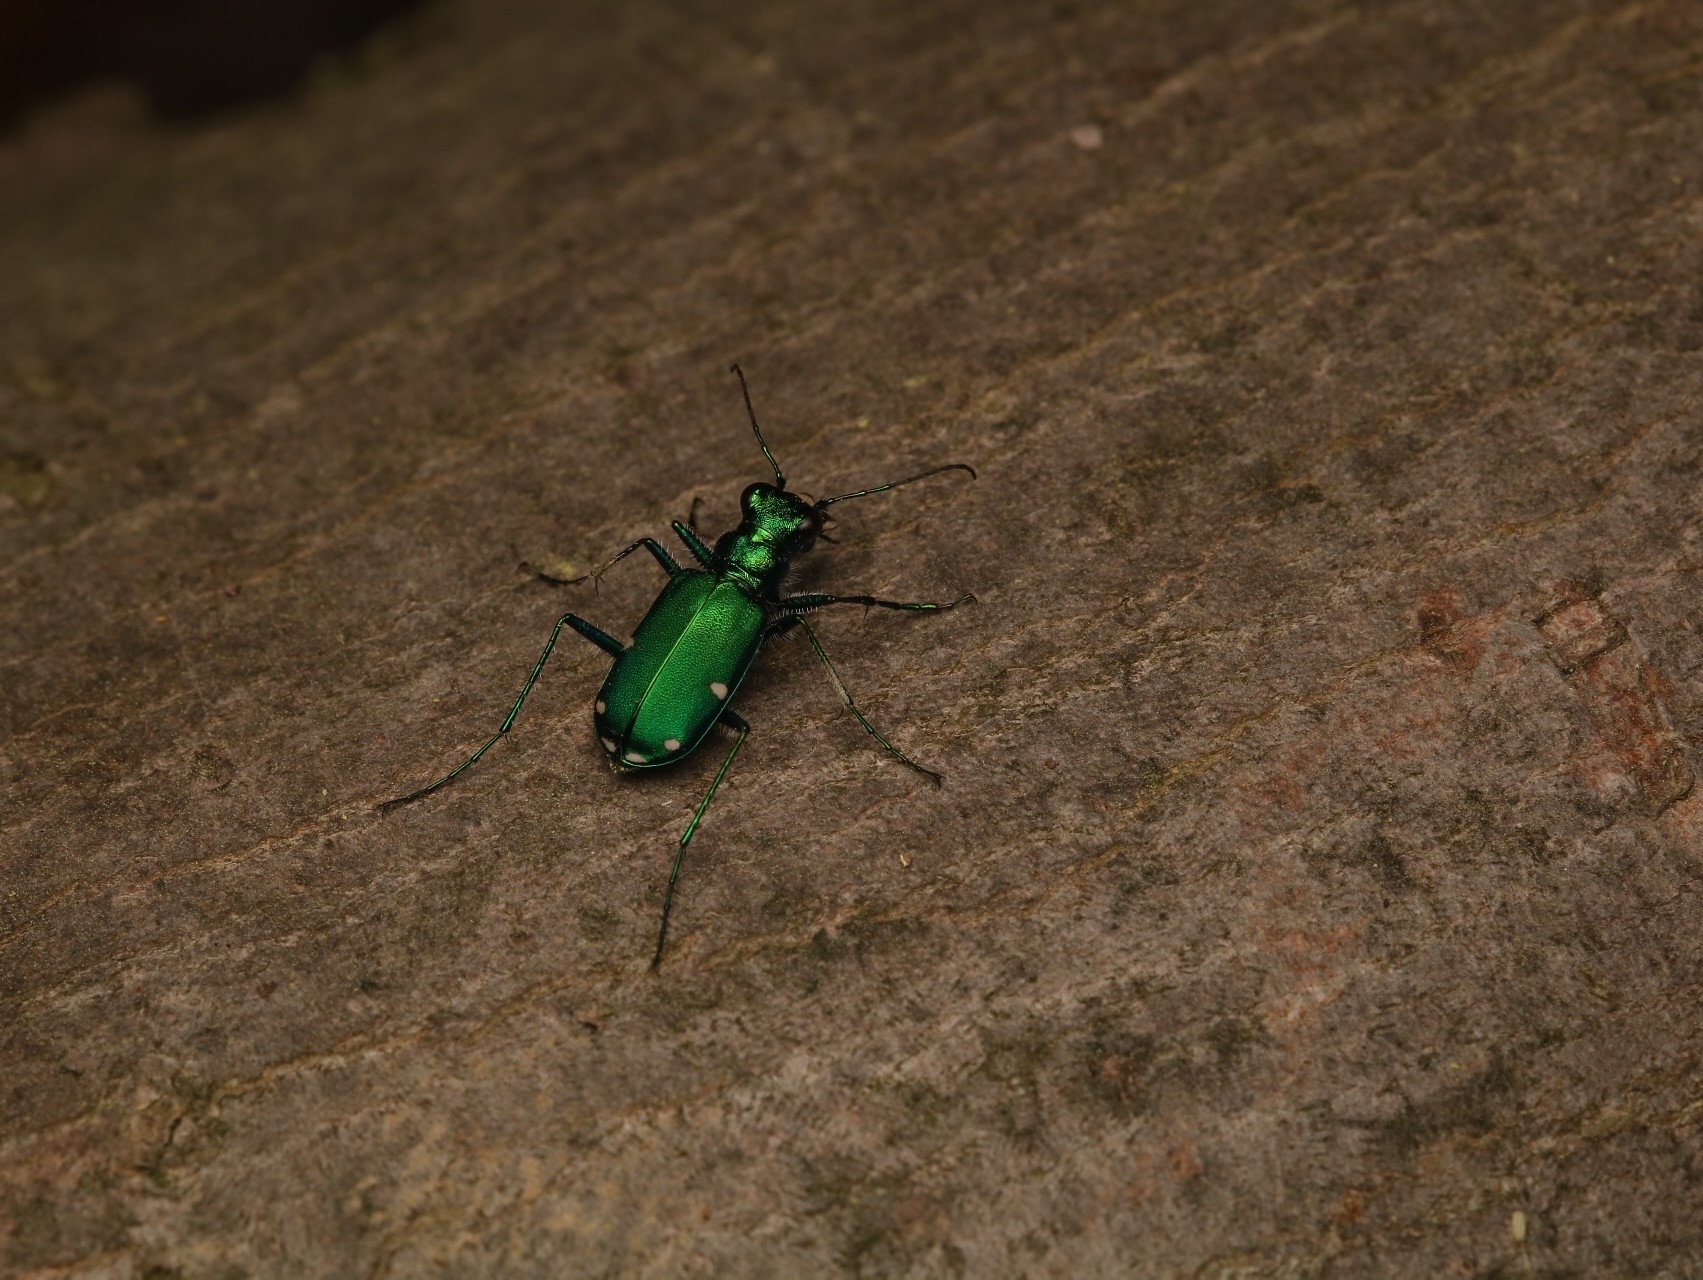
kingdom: Animalia
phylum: Arthropoda
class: Insecta
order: Coleoptera
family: Carabidae
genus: Cicindela
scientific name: Cicindela sexguttata
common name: Six-spotted tiger beetle
